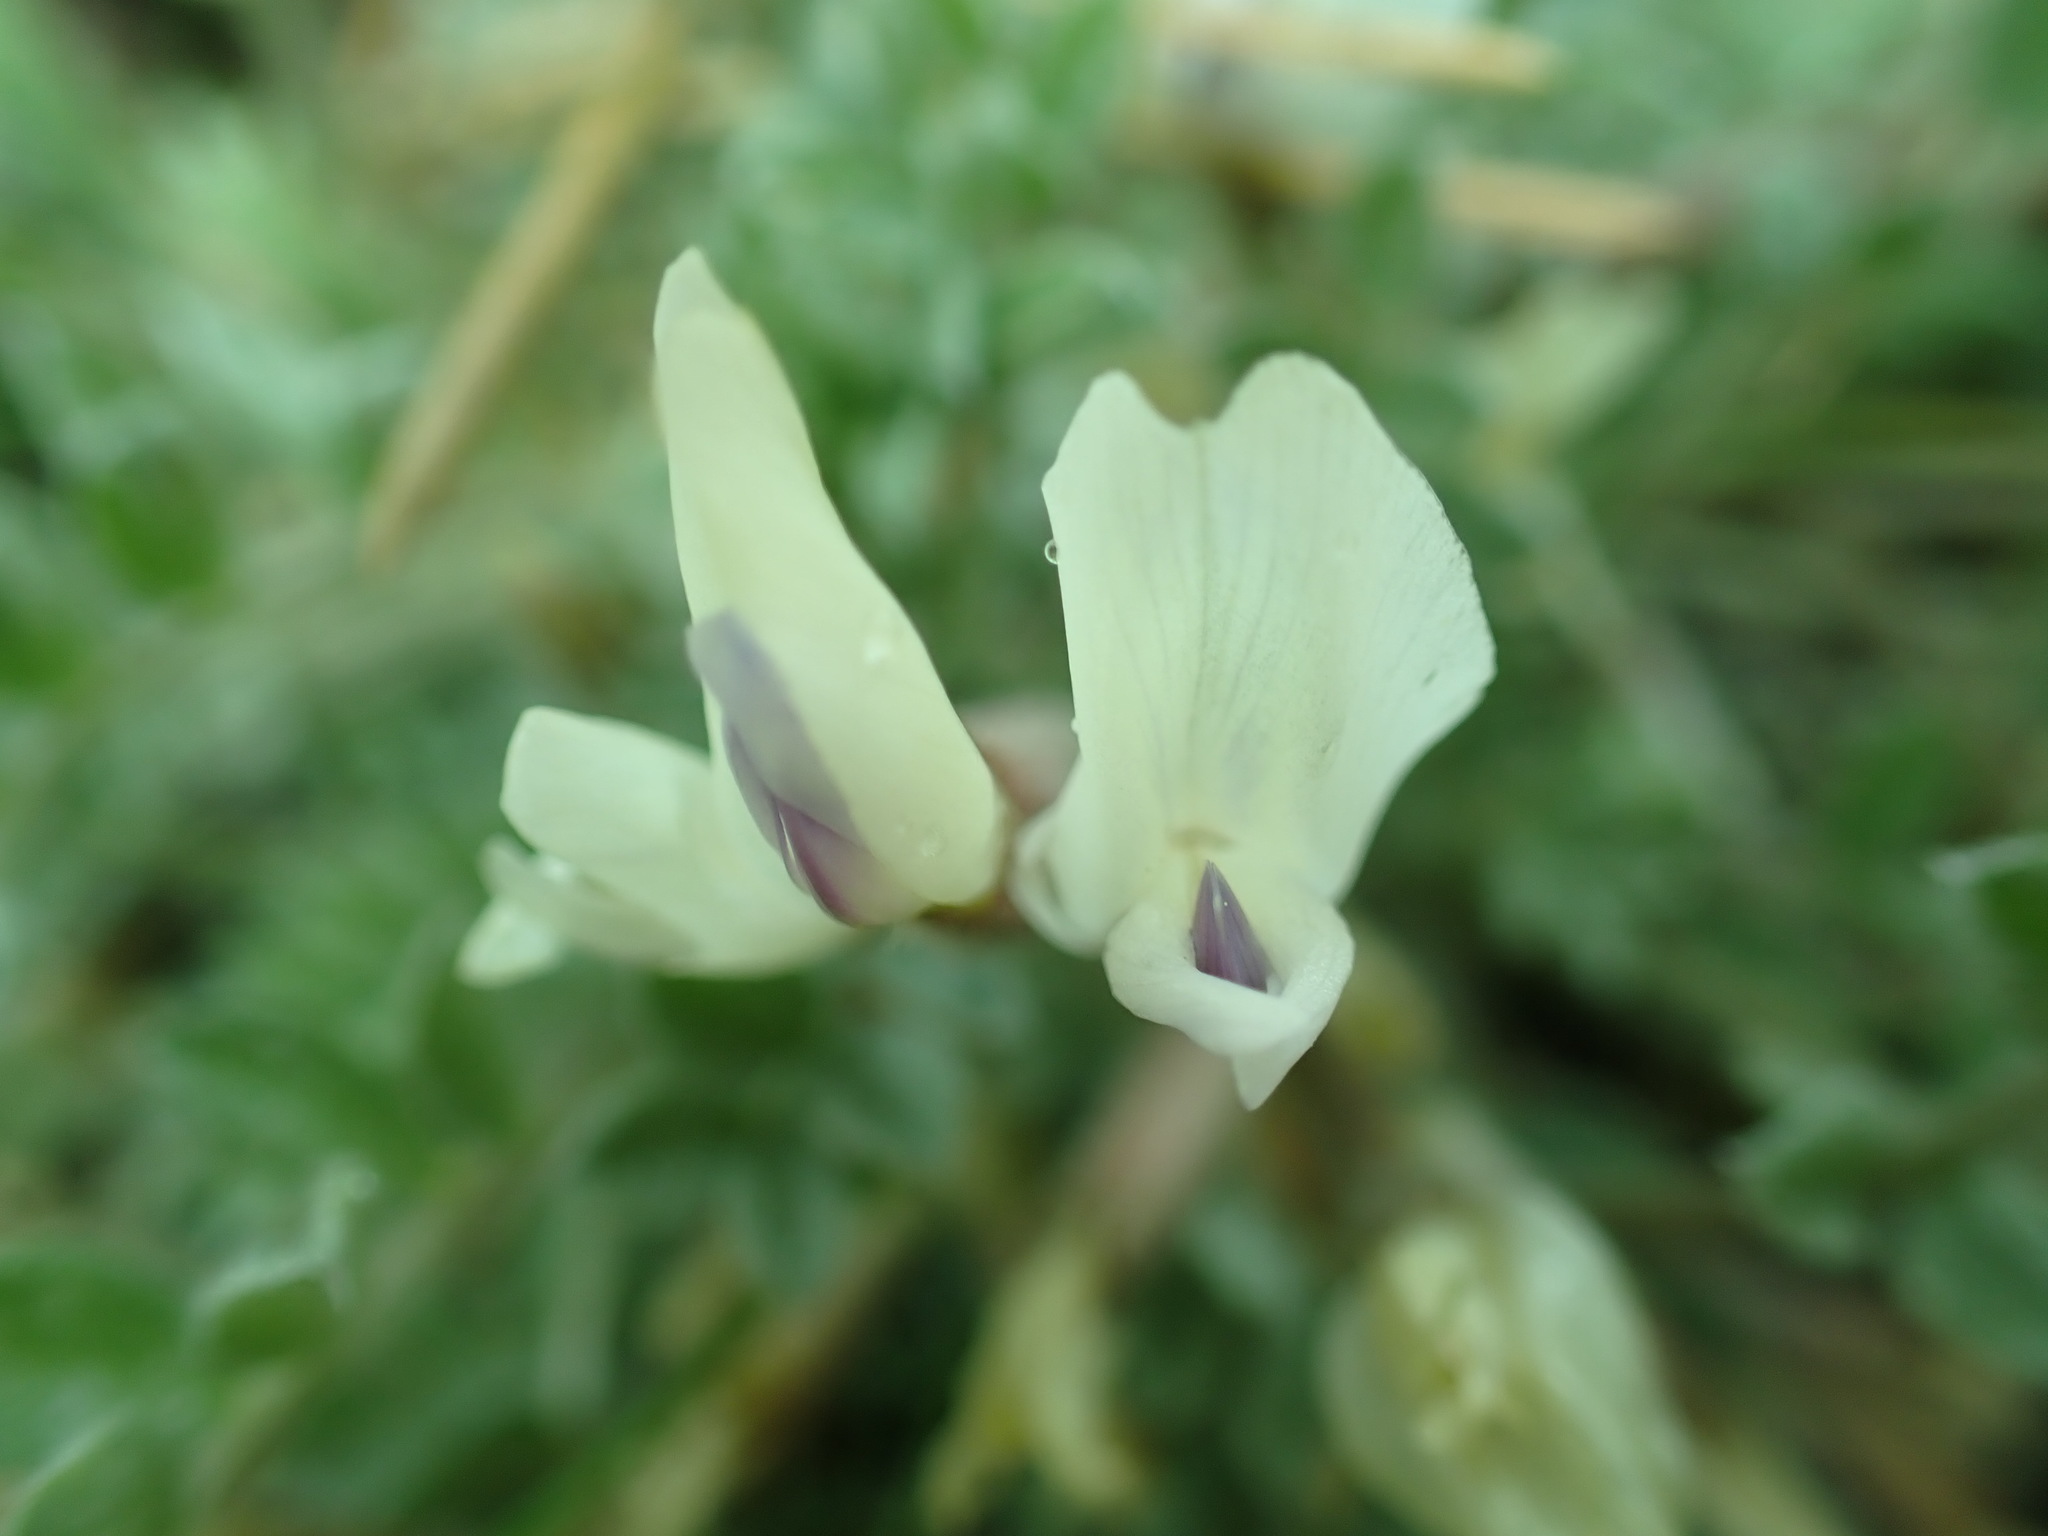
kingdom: Plantae
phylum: Tracheophyta
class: Magnoliopsida
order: Fabales
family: Fabaceae
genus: Astragalus
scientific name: Astragalus purshii
